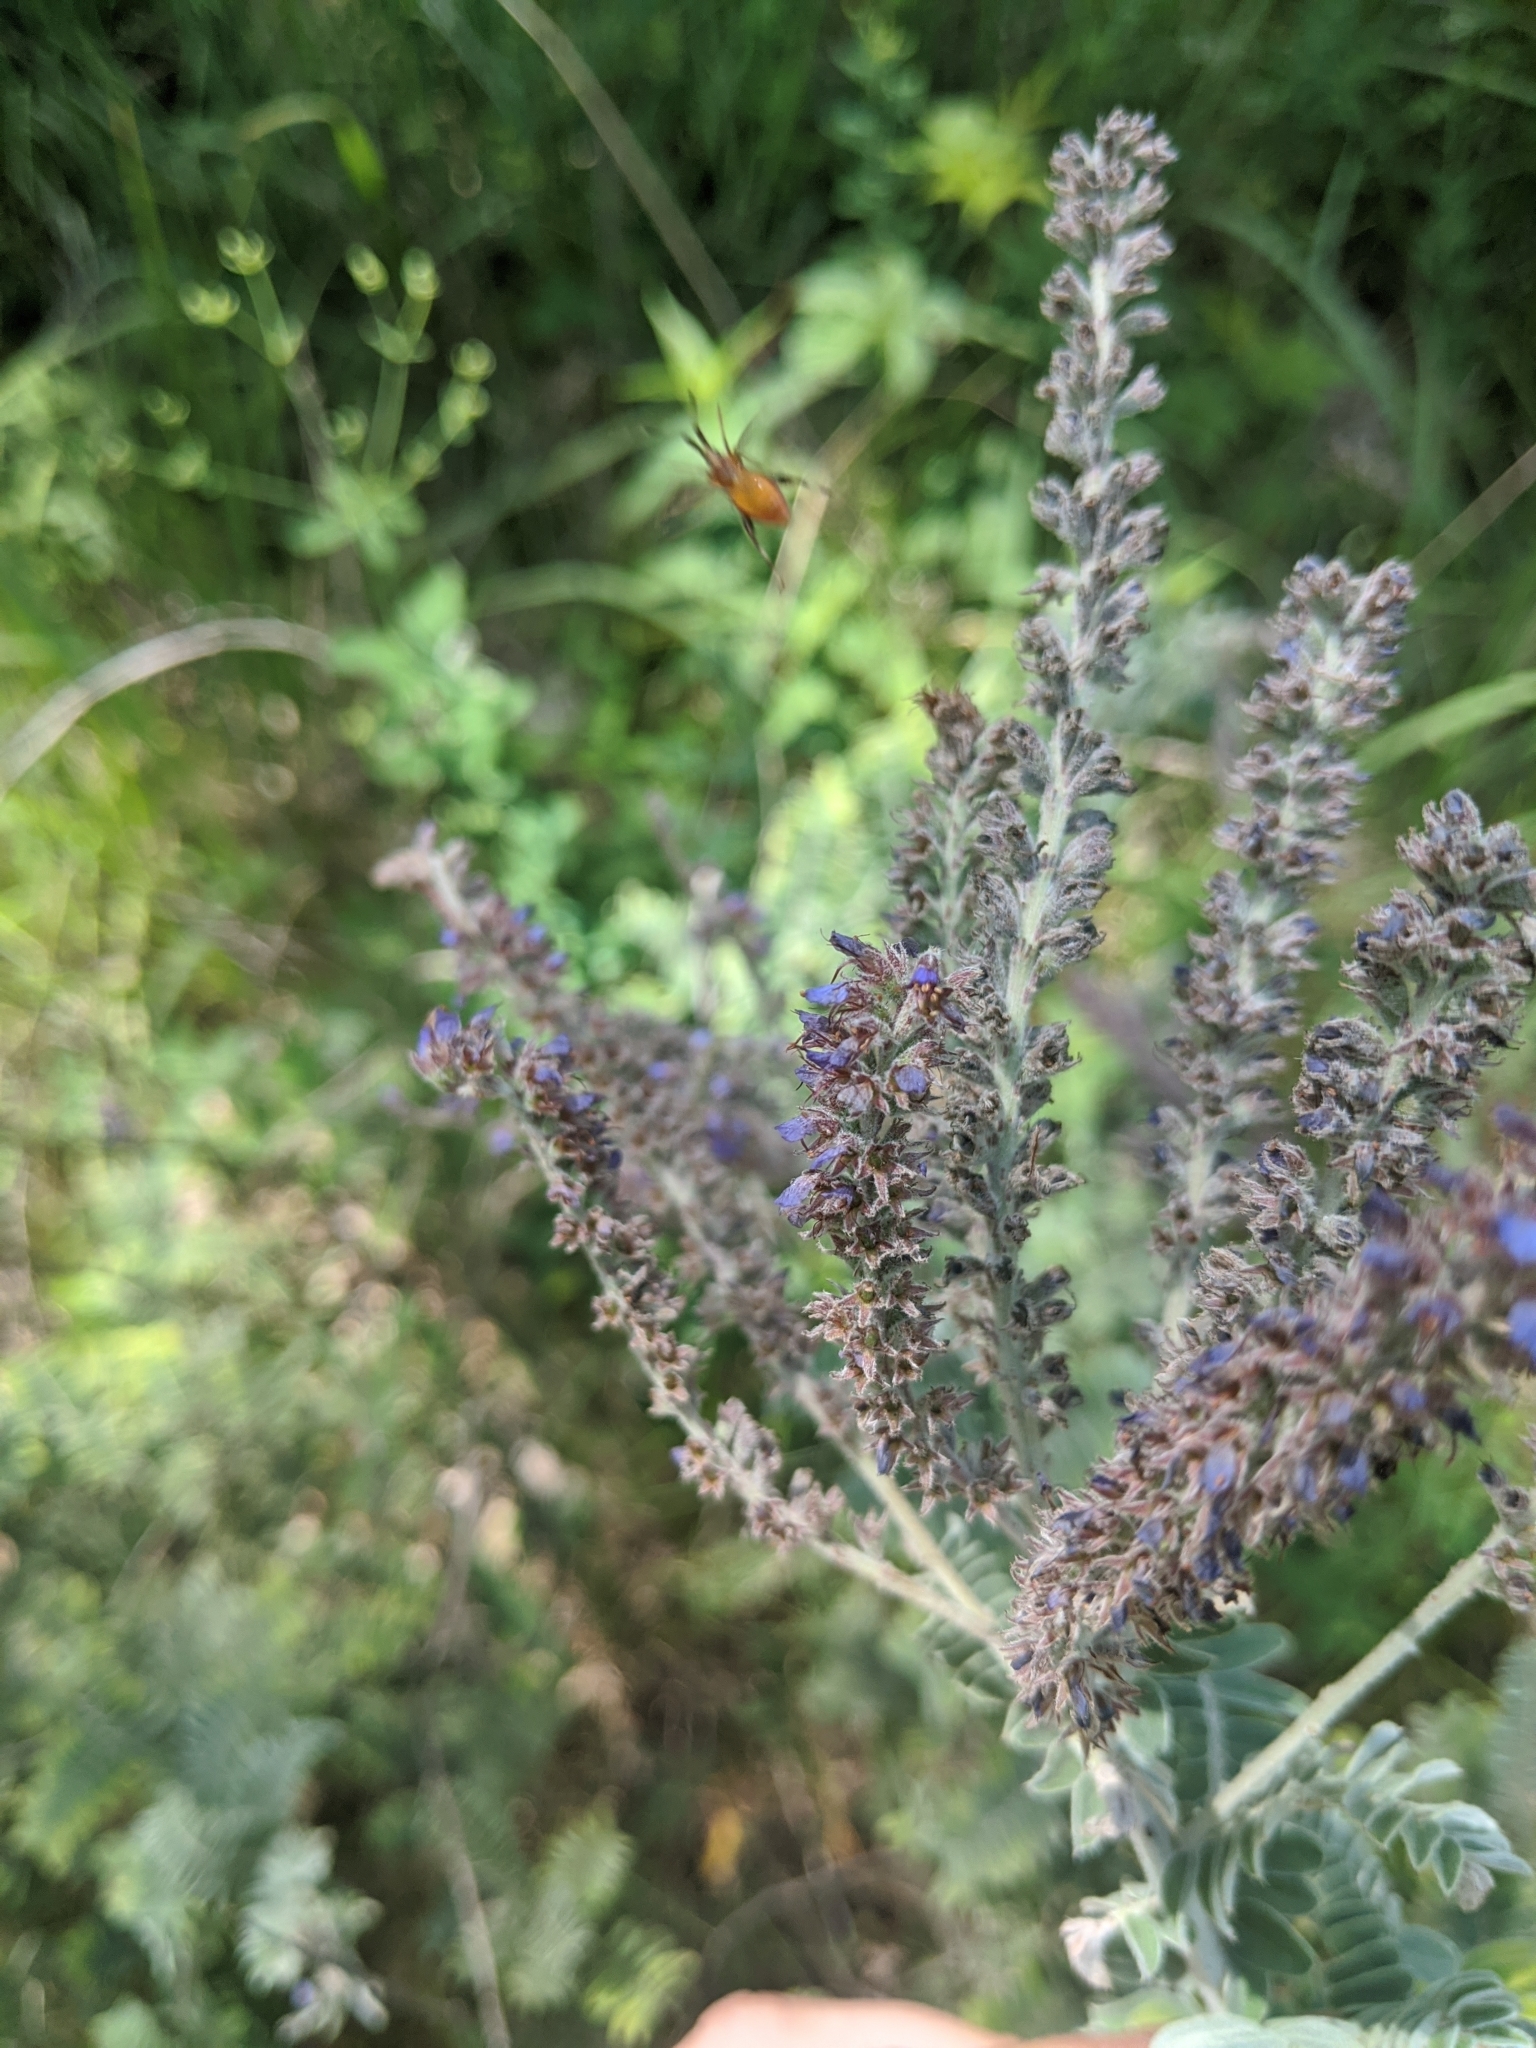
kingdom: Plantae
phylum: Tracheophyta
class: Magnoliopsida
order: Fabales
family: Fabaceae
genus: Amorpha
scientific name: Amorpha canescens
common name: Leadplant
